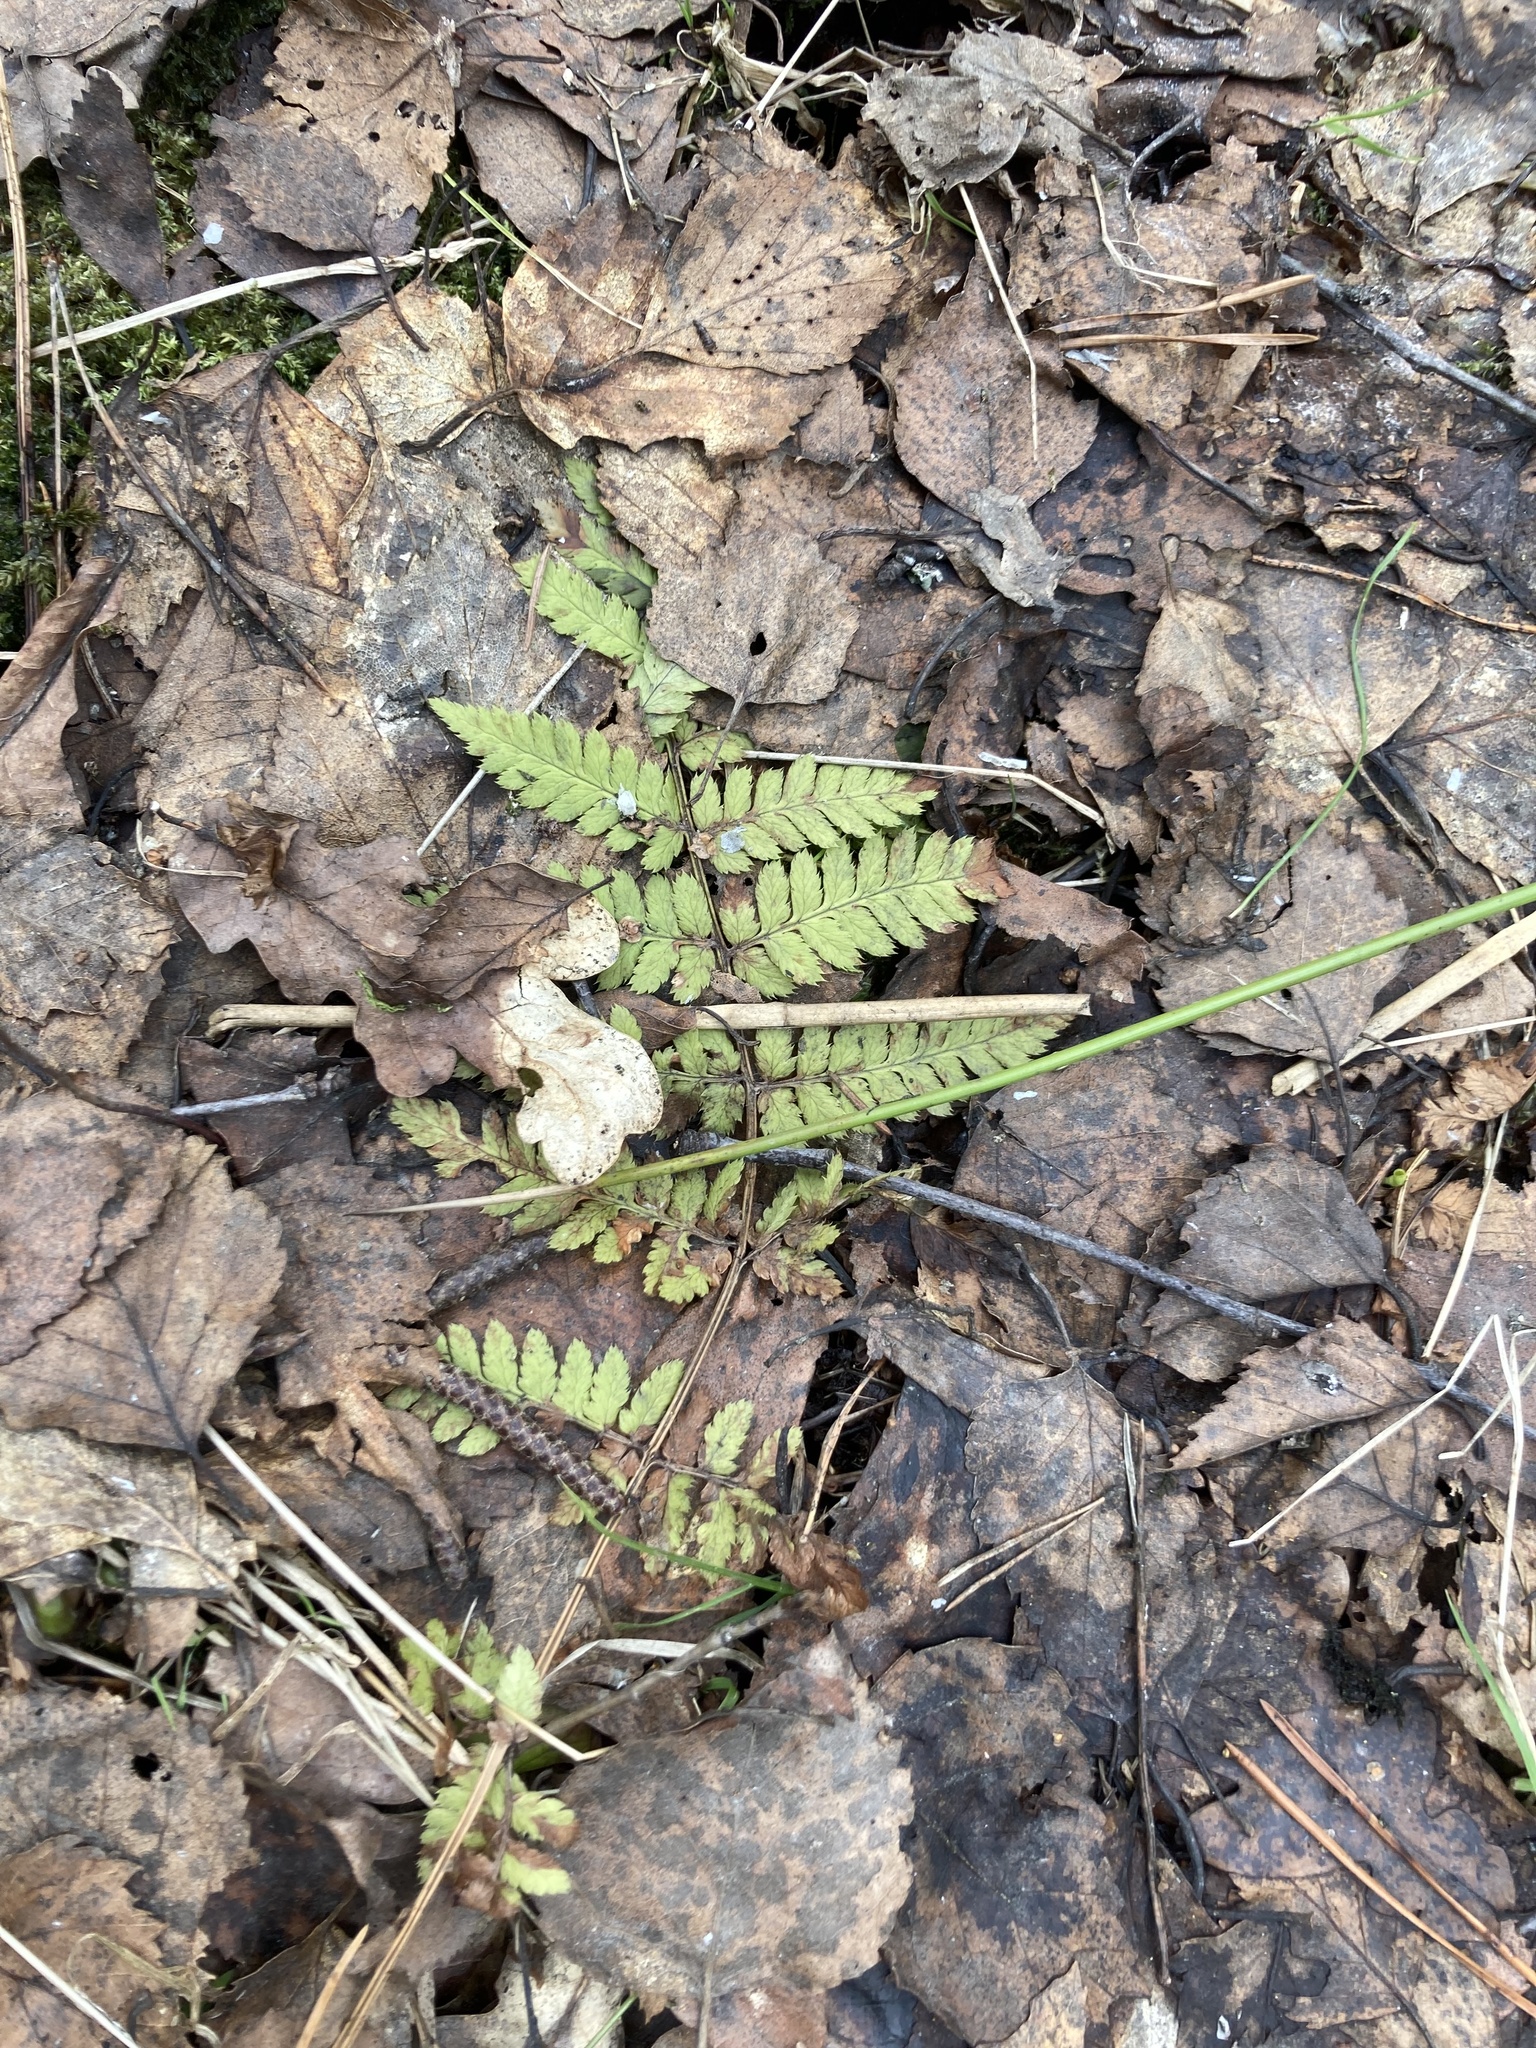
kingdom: Plantae
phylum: Tracheophyta
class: Polypodiopsida
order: Polypodiales
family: Dryopteridaceae
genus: Dryopteris
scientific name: Dryopteris carthusiana
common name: Narrow buckler-fern
